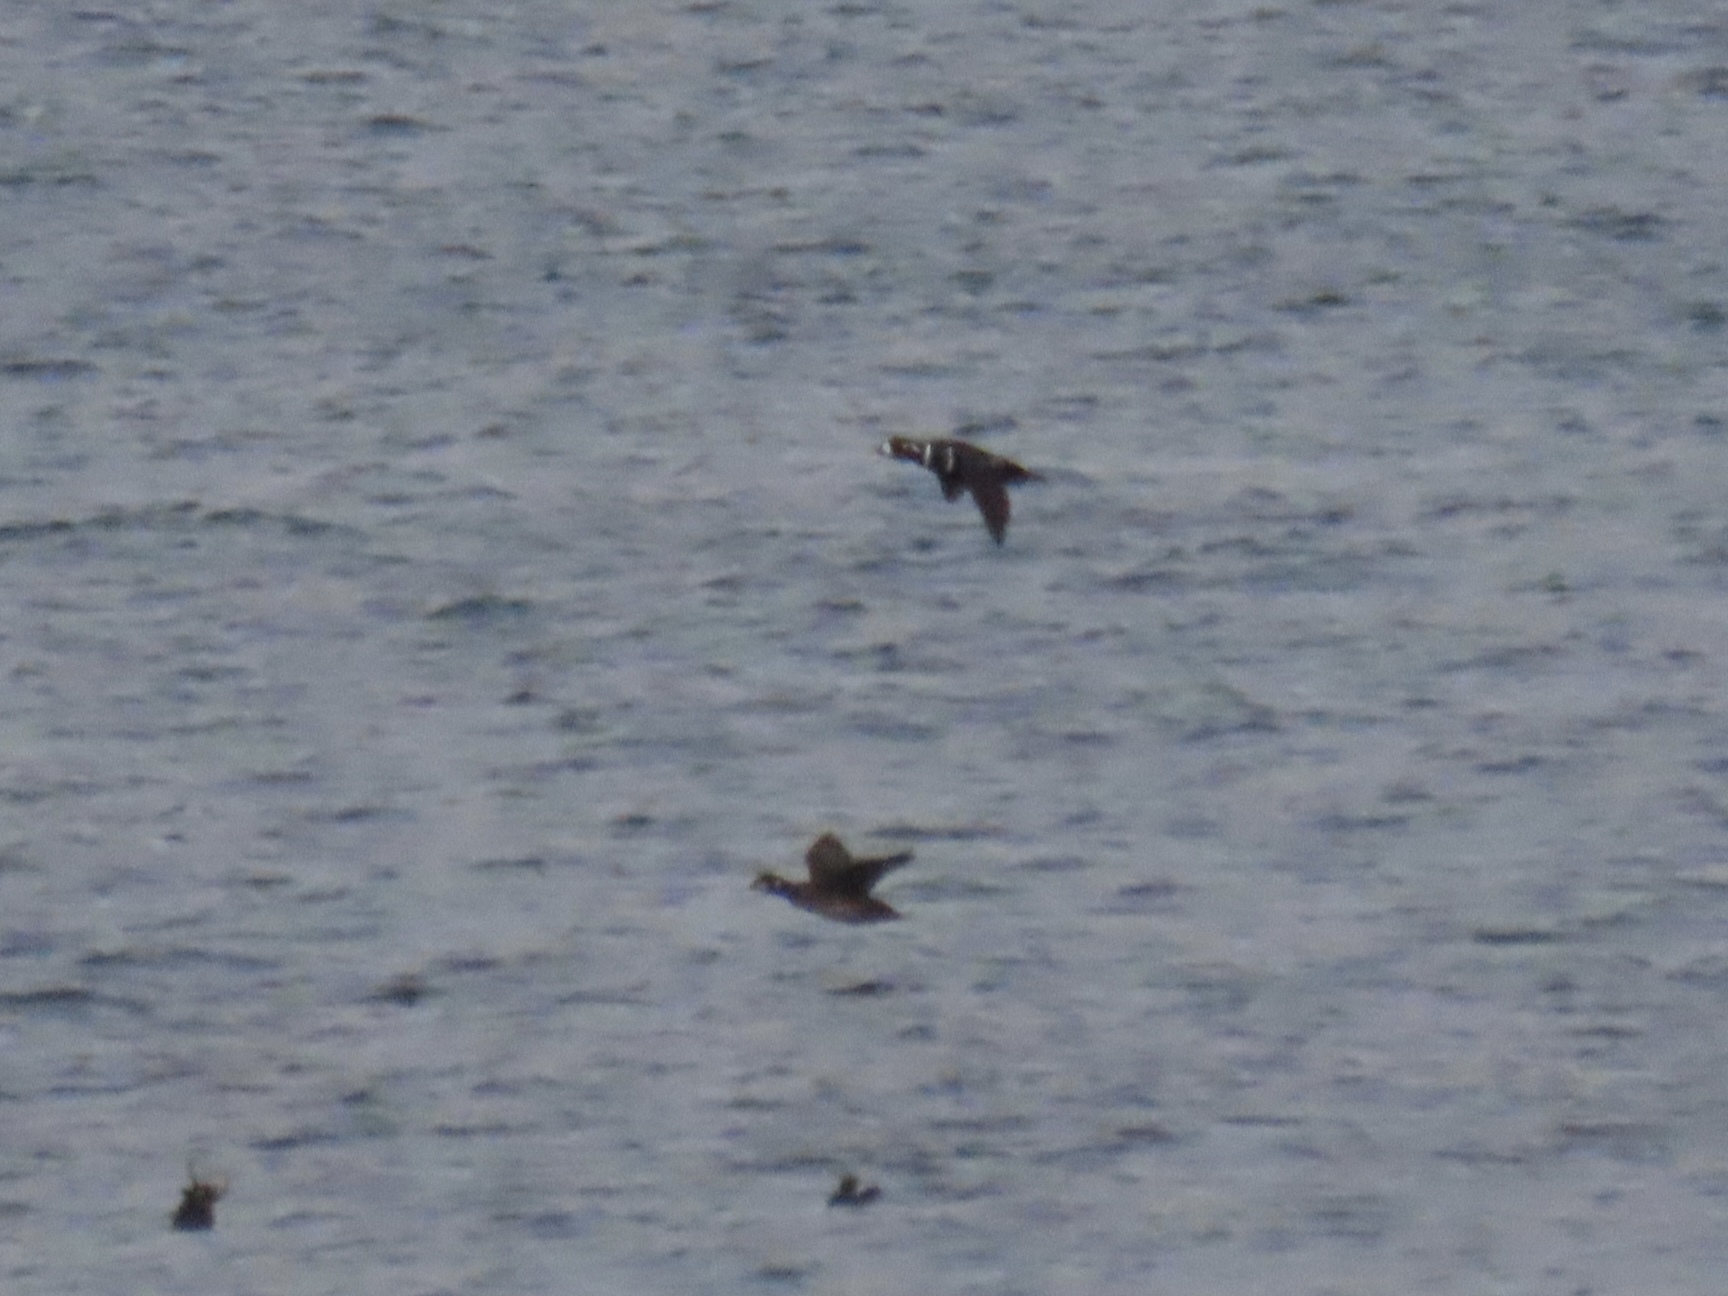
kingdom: Animalia
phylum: Chordata
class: Aves
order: Anseriformes
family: Anatidae
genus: Histrionicus
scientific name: Histrionicus histrionicus
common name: Harlequin duck
